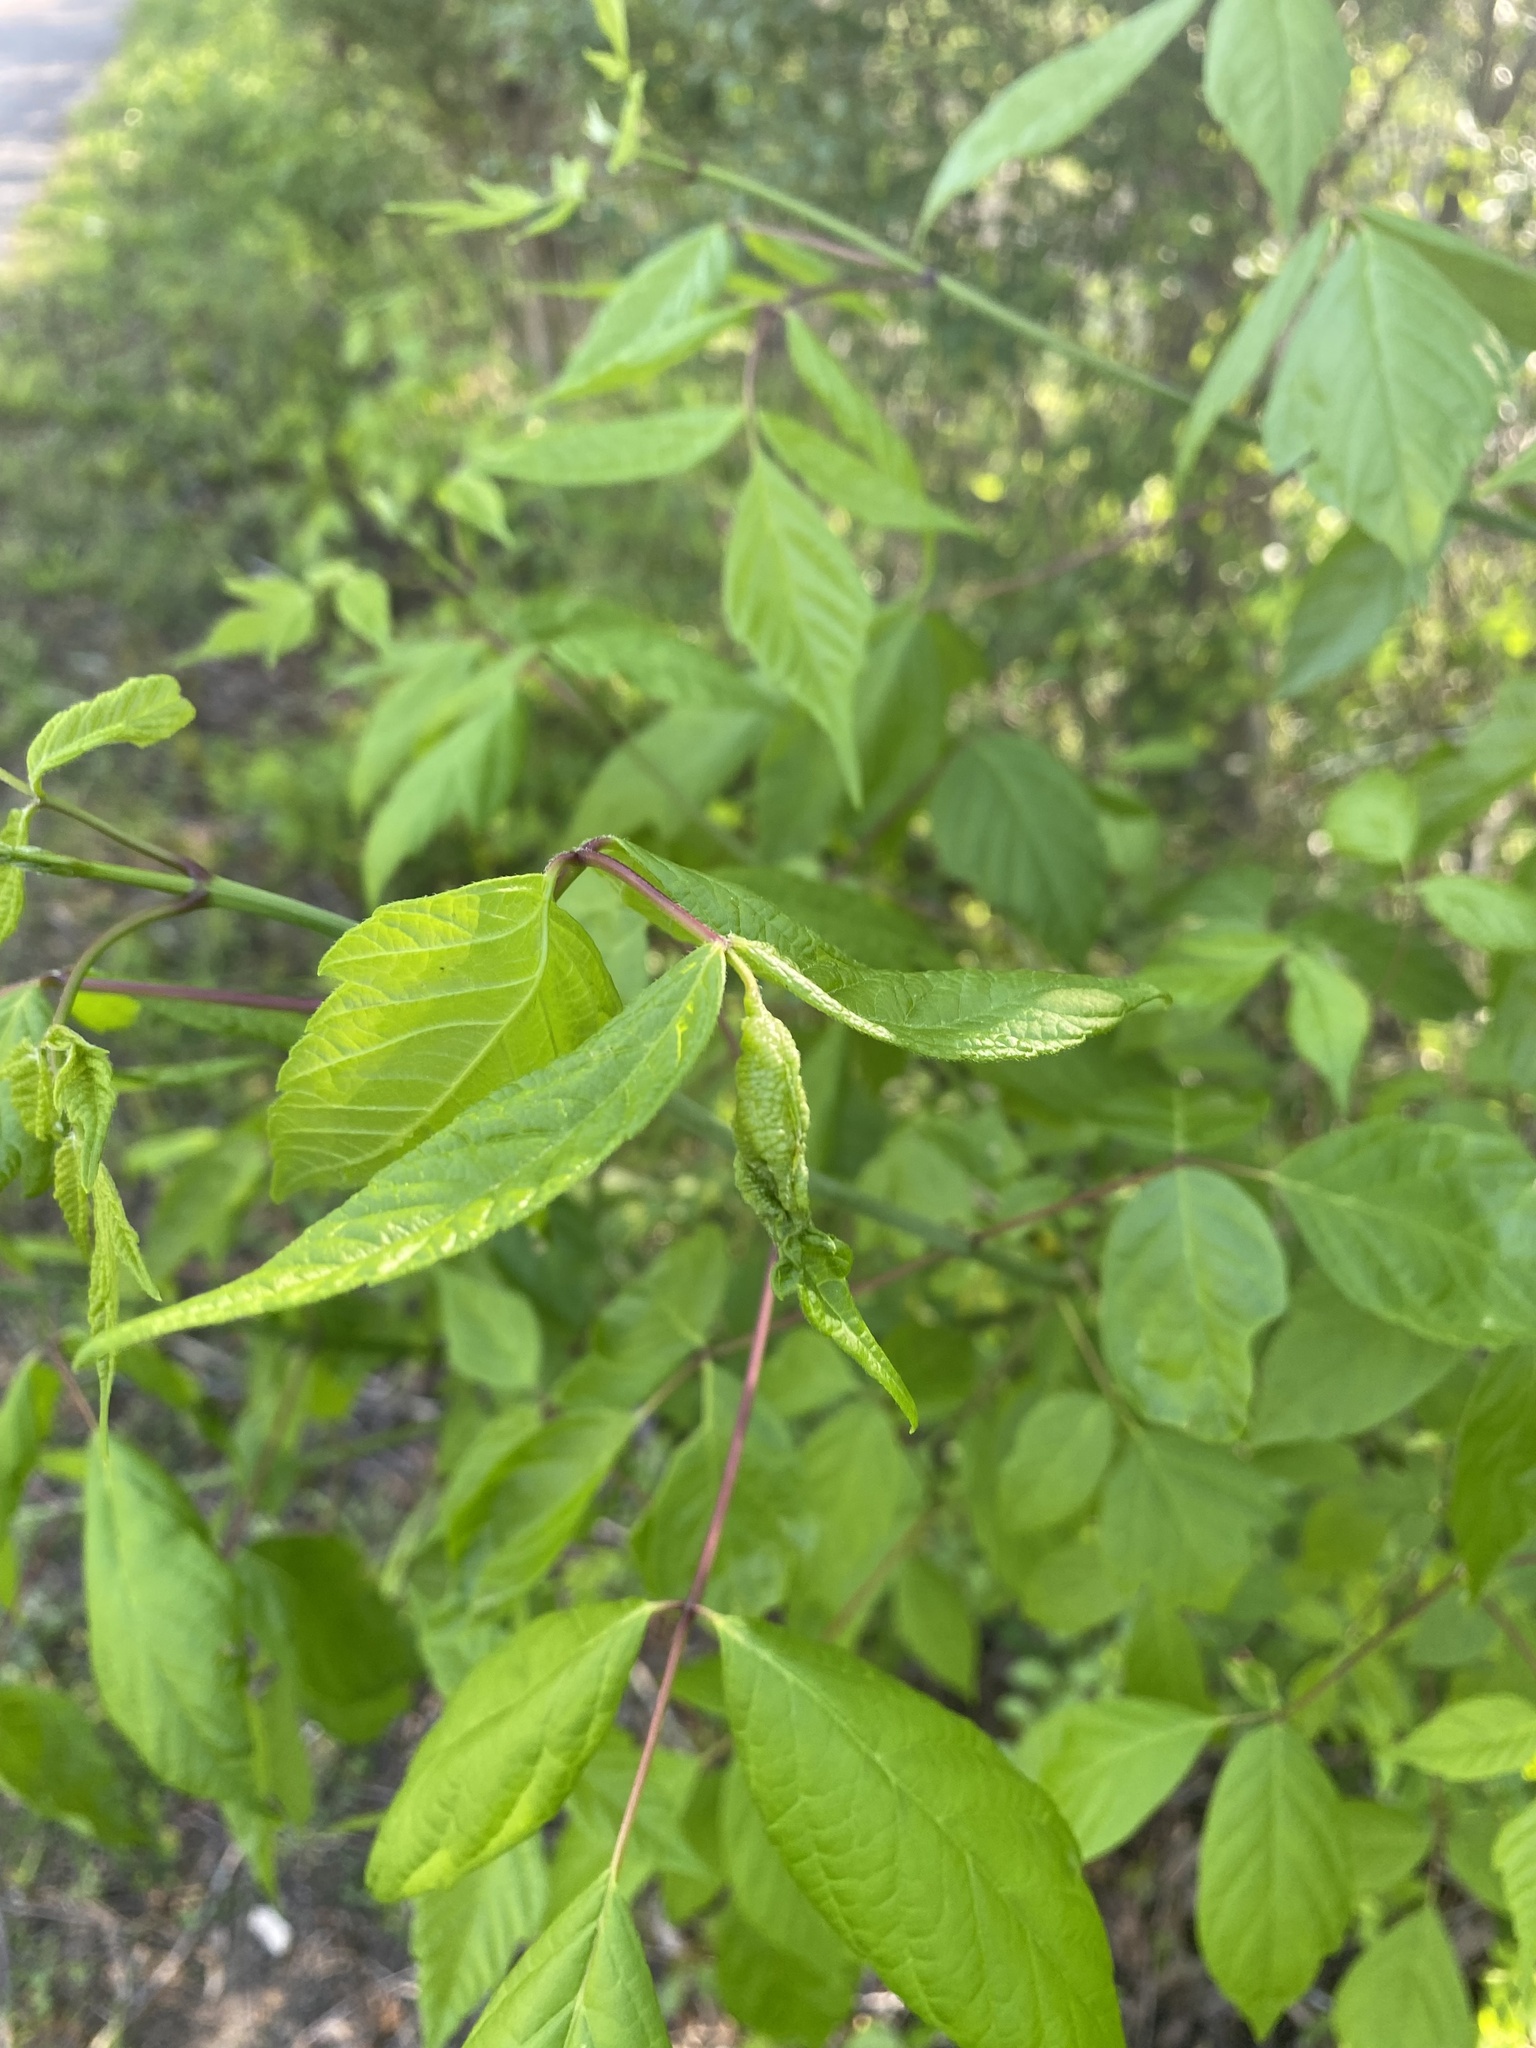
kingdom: Plantae
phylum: Tracheophyta
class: Magnoliopsida
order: Sapindales
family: Sapindaceae
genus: Acer
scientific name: Acer negundo
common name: Ashleaf maple
